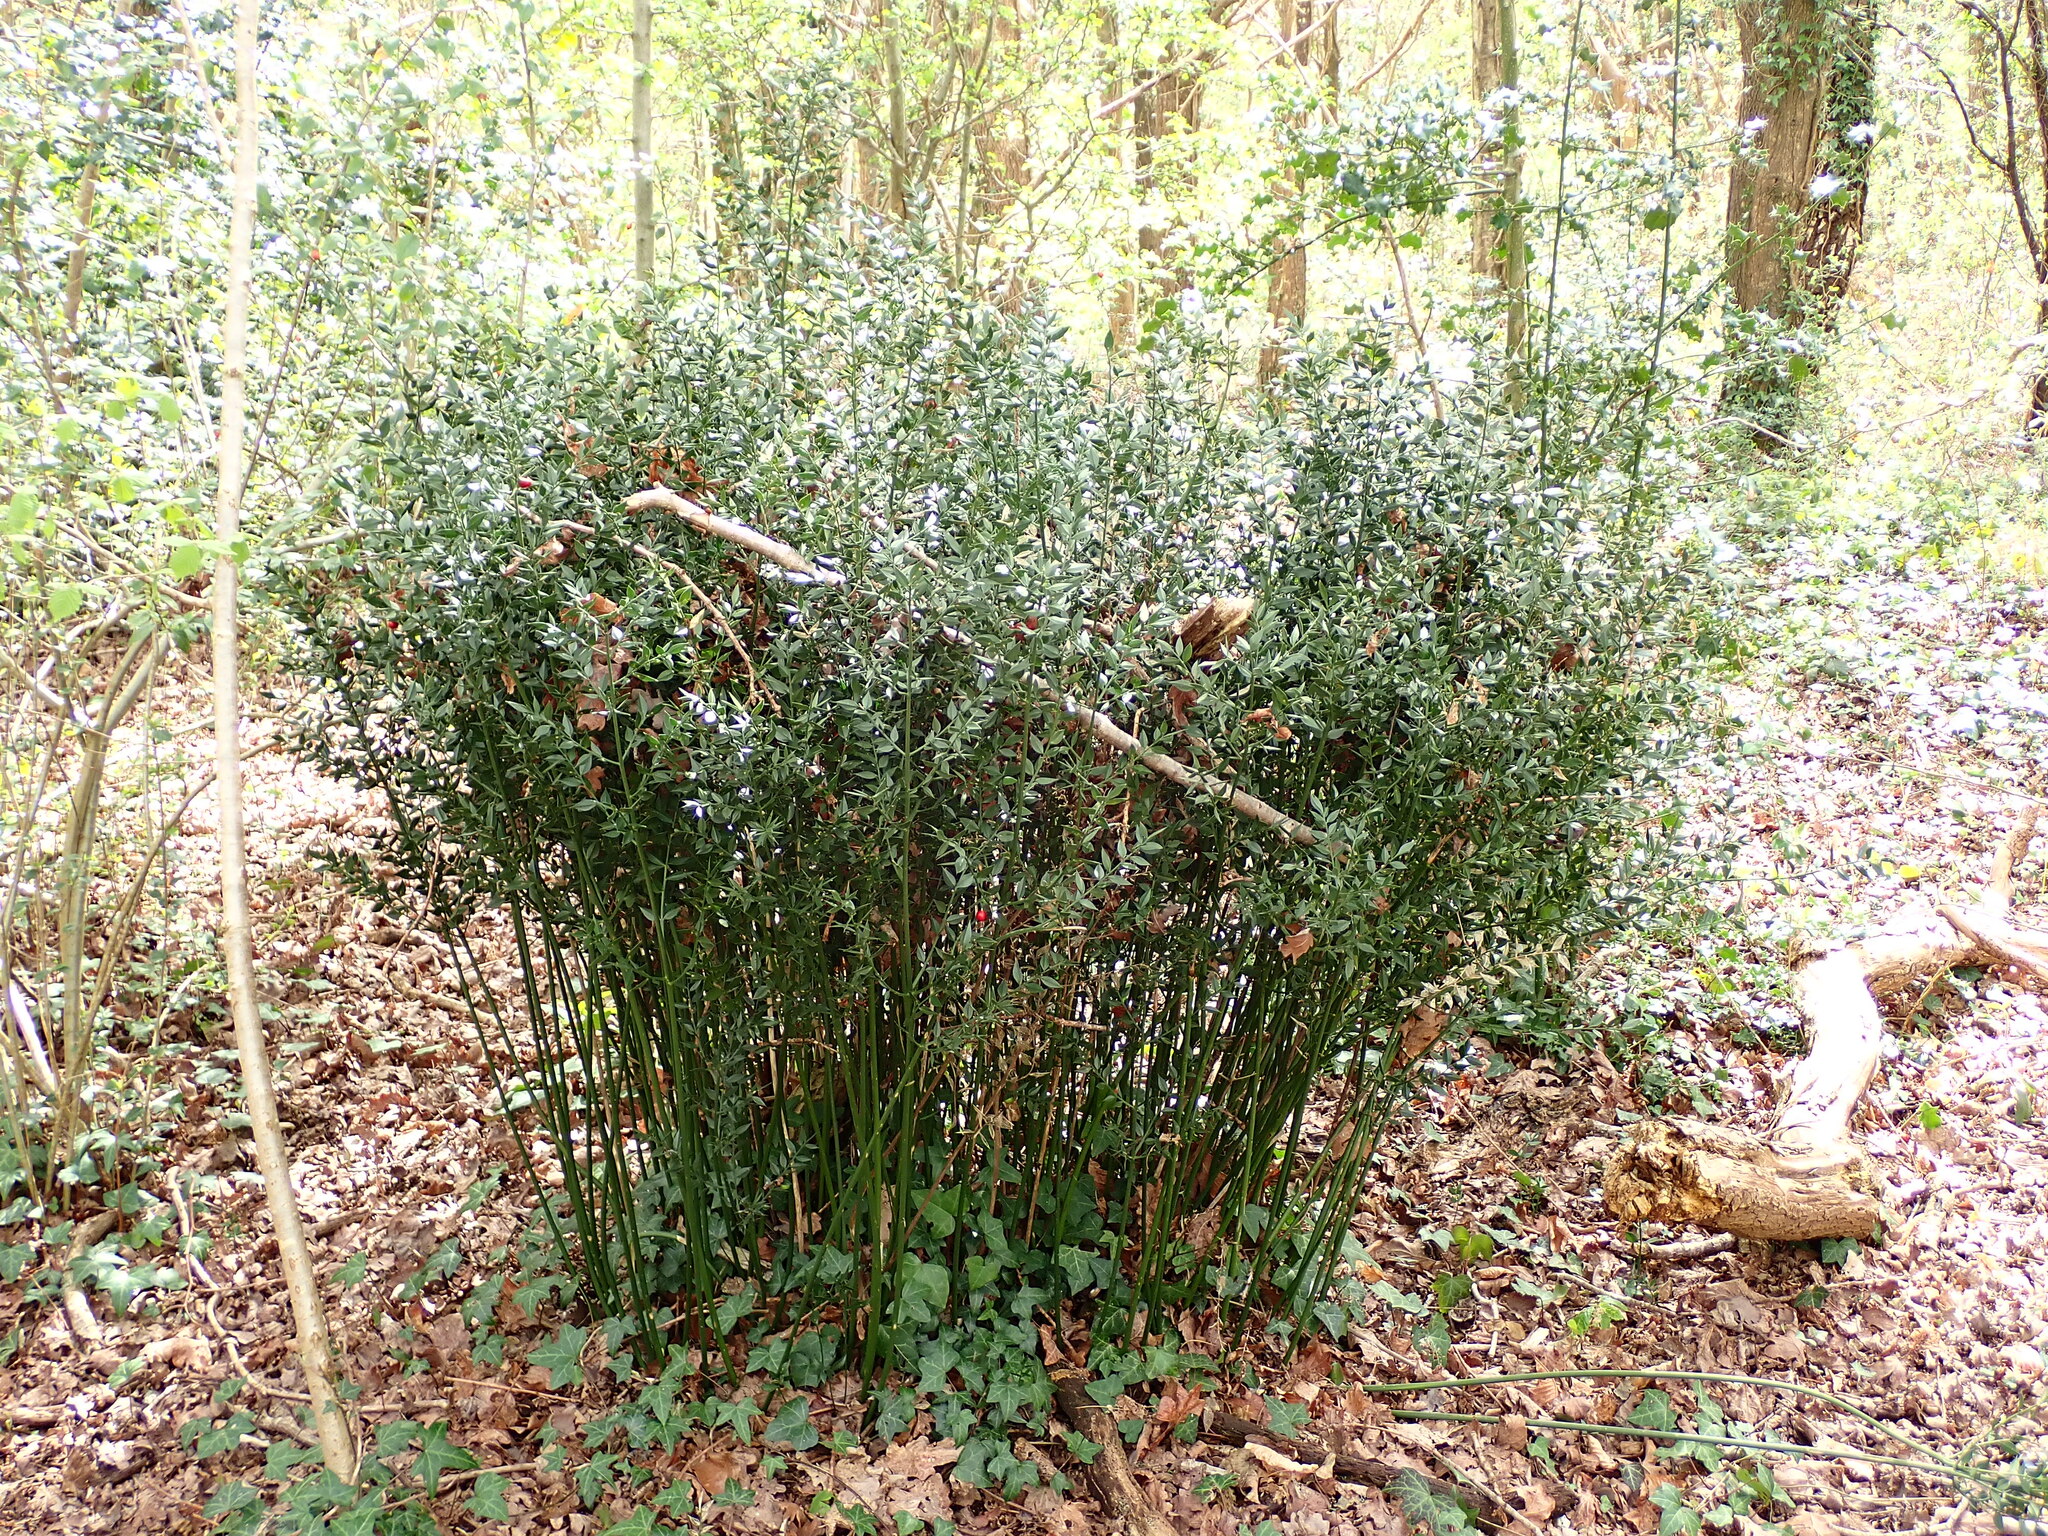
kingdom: Plantae
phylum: Tracheophyta
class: Liliopsida
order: Asparagales
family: Asparagaceae
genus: Ruscus
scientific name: Ruscus aculeatus
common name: Butcher's-broom
